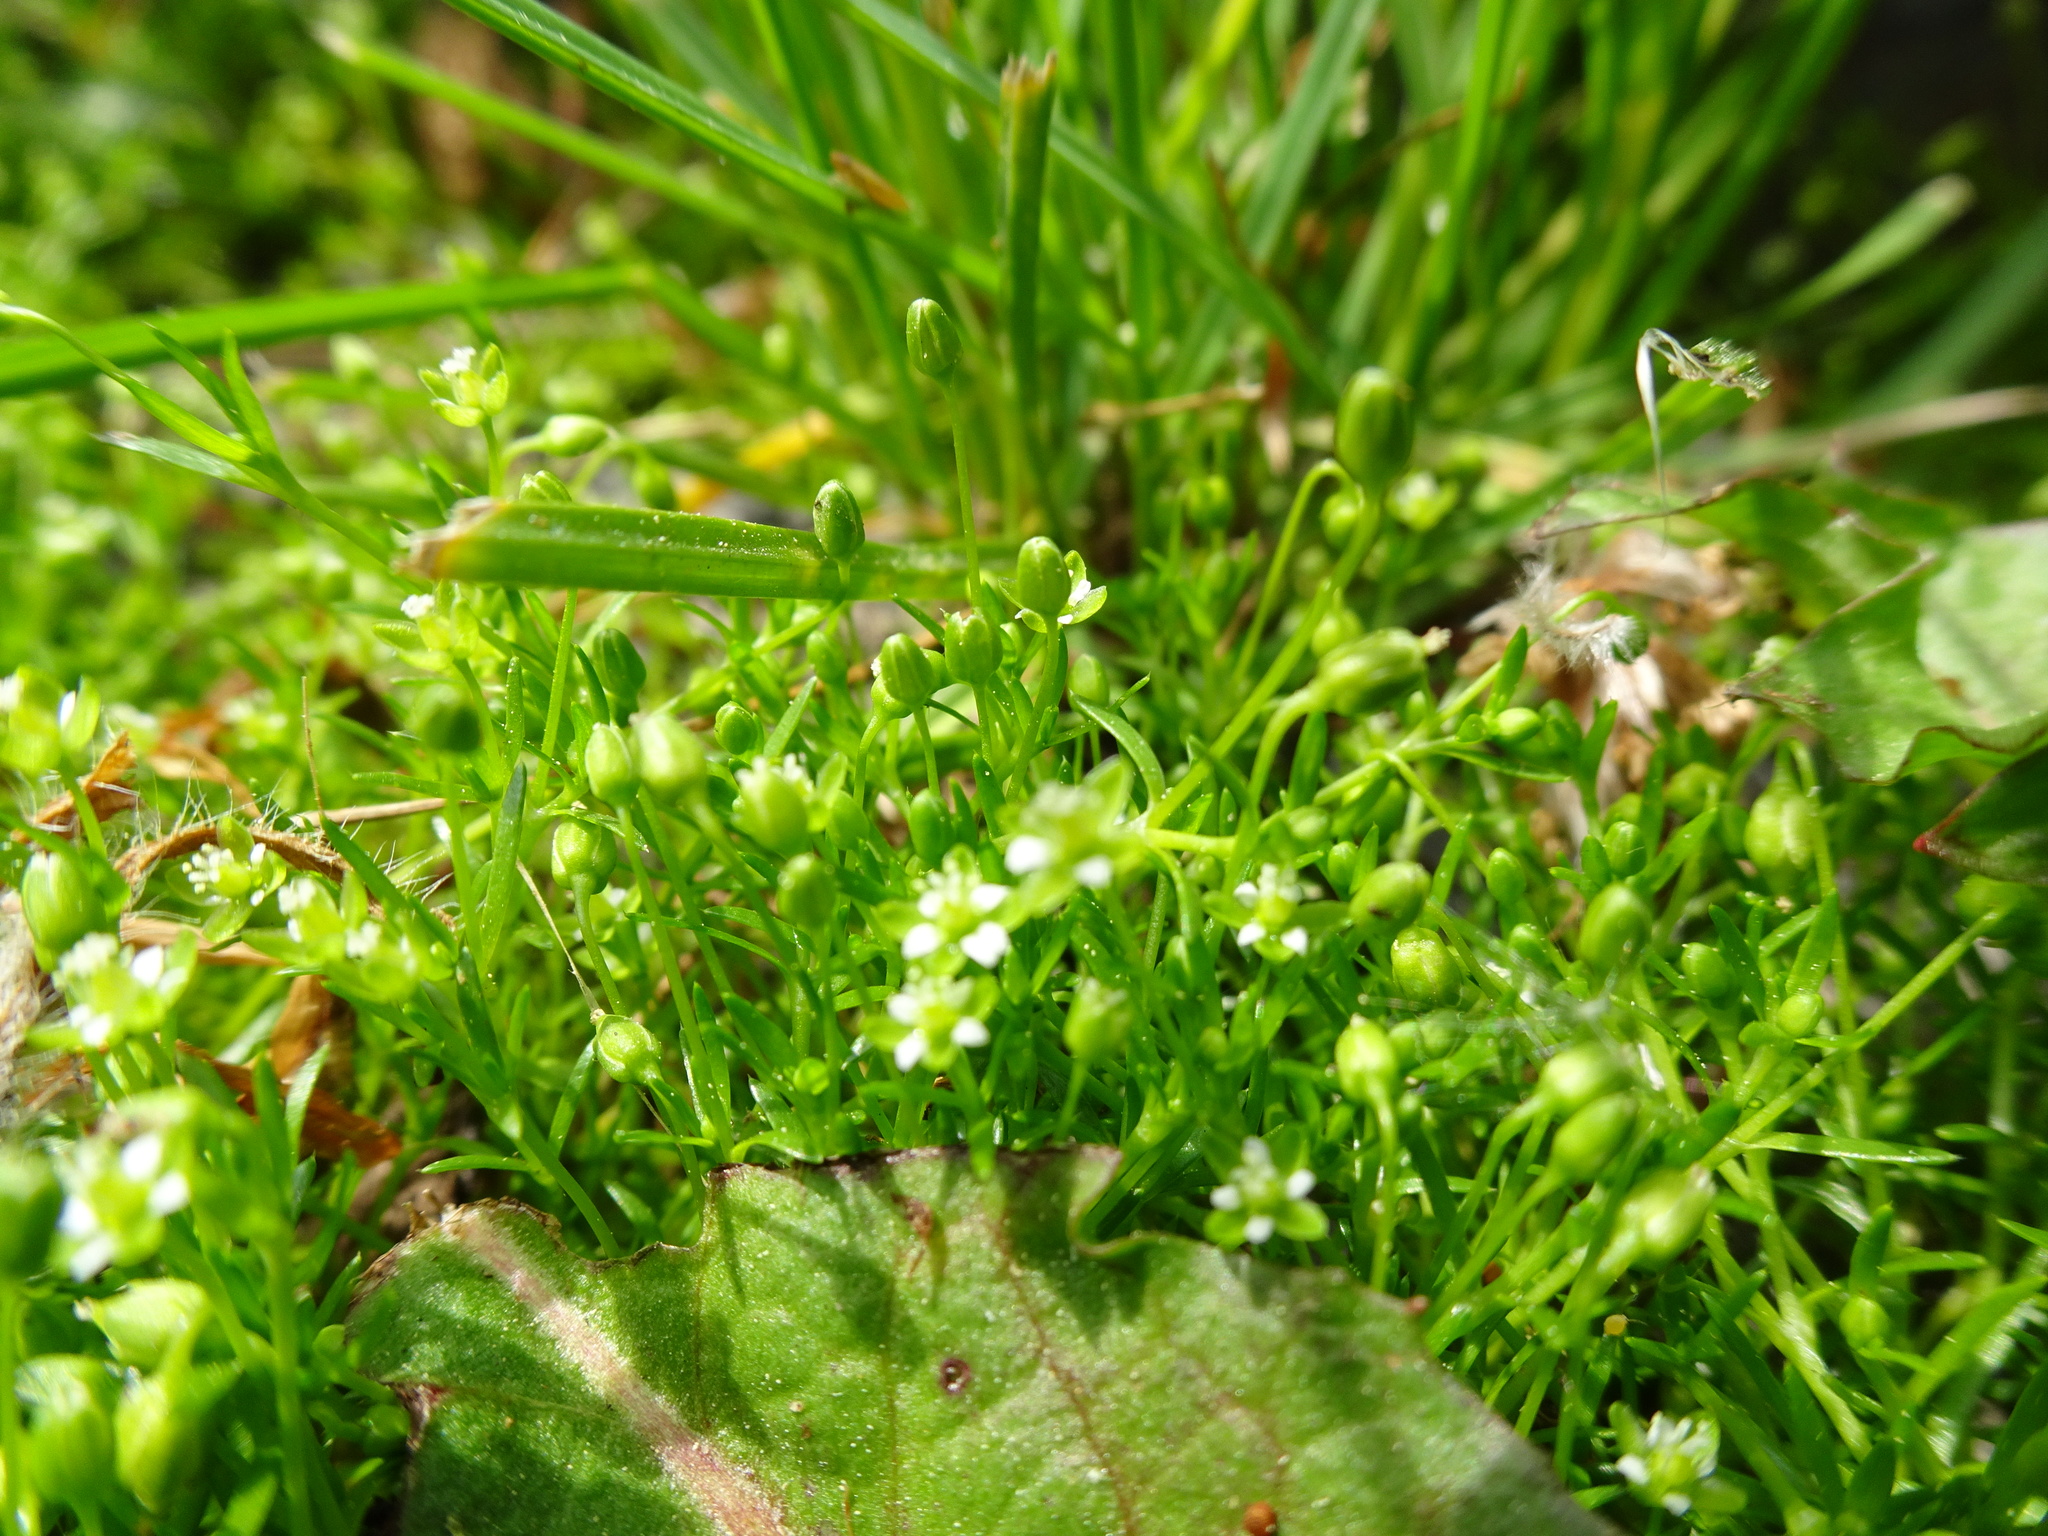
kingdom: Plantae
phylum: Tracheophyta
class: Magnoliopsida
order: Caryophyllales
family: Caryophyllaceae
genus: Sagina
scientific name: Sagina procumbens
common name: Procumbent pearlwort
